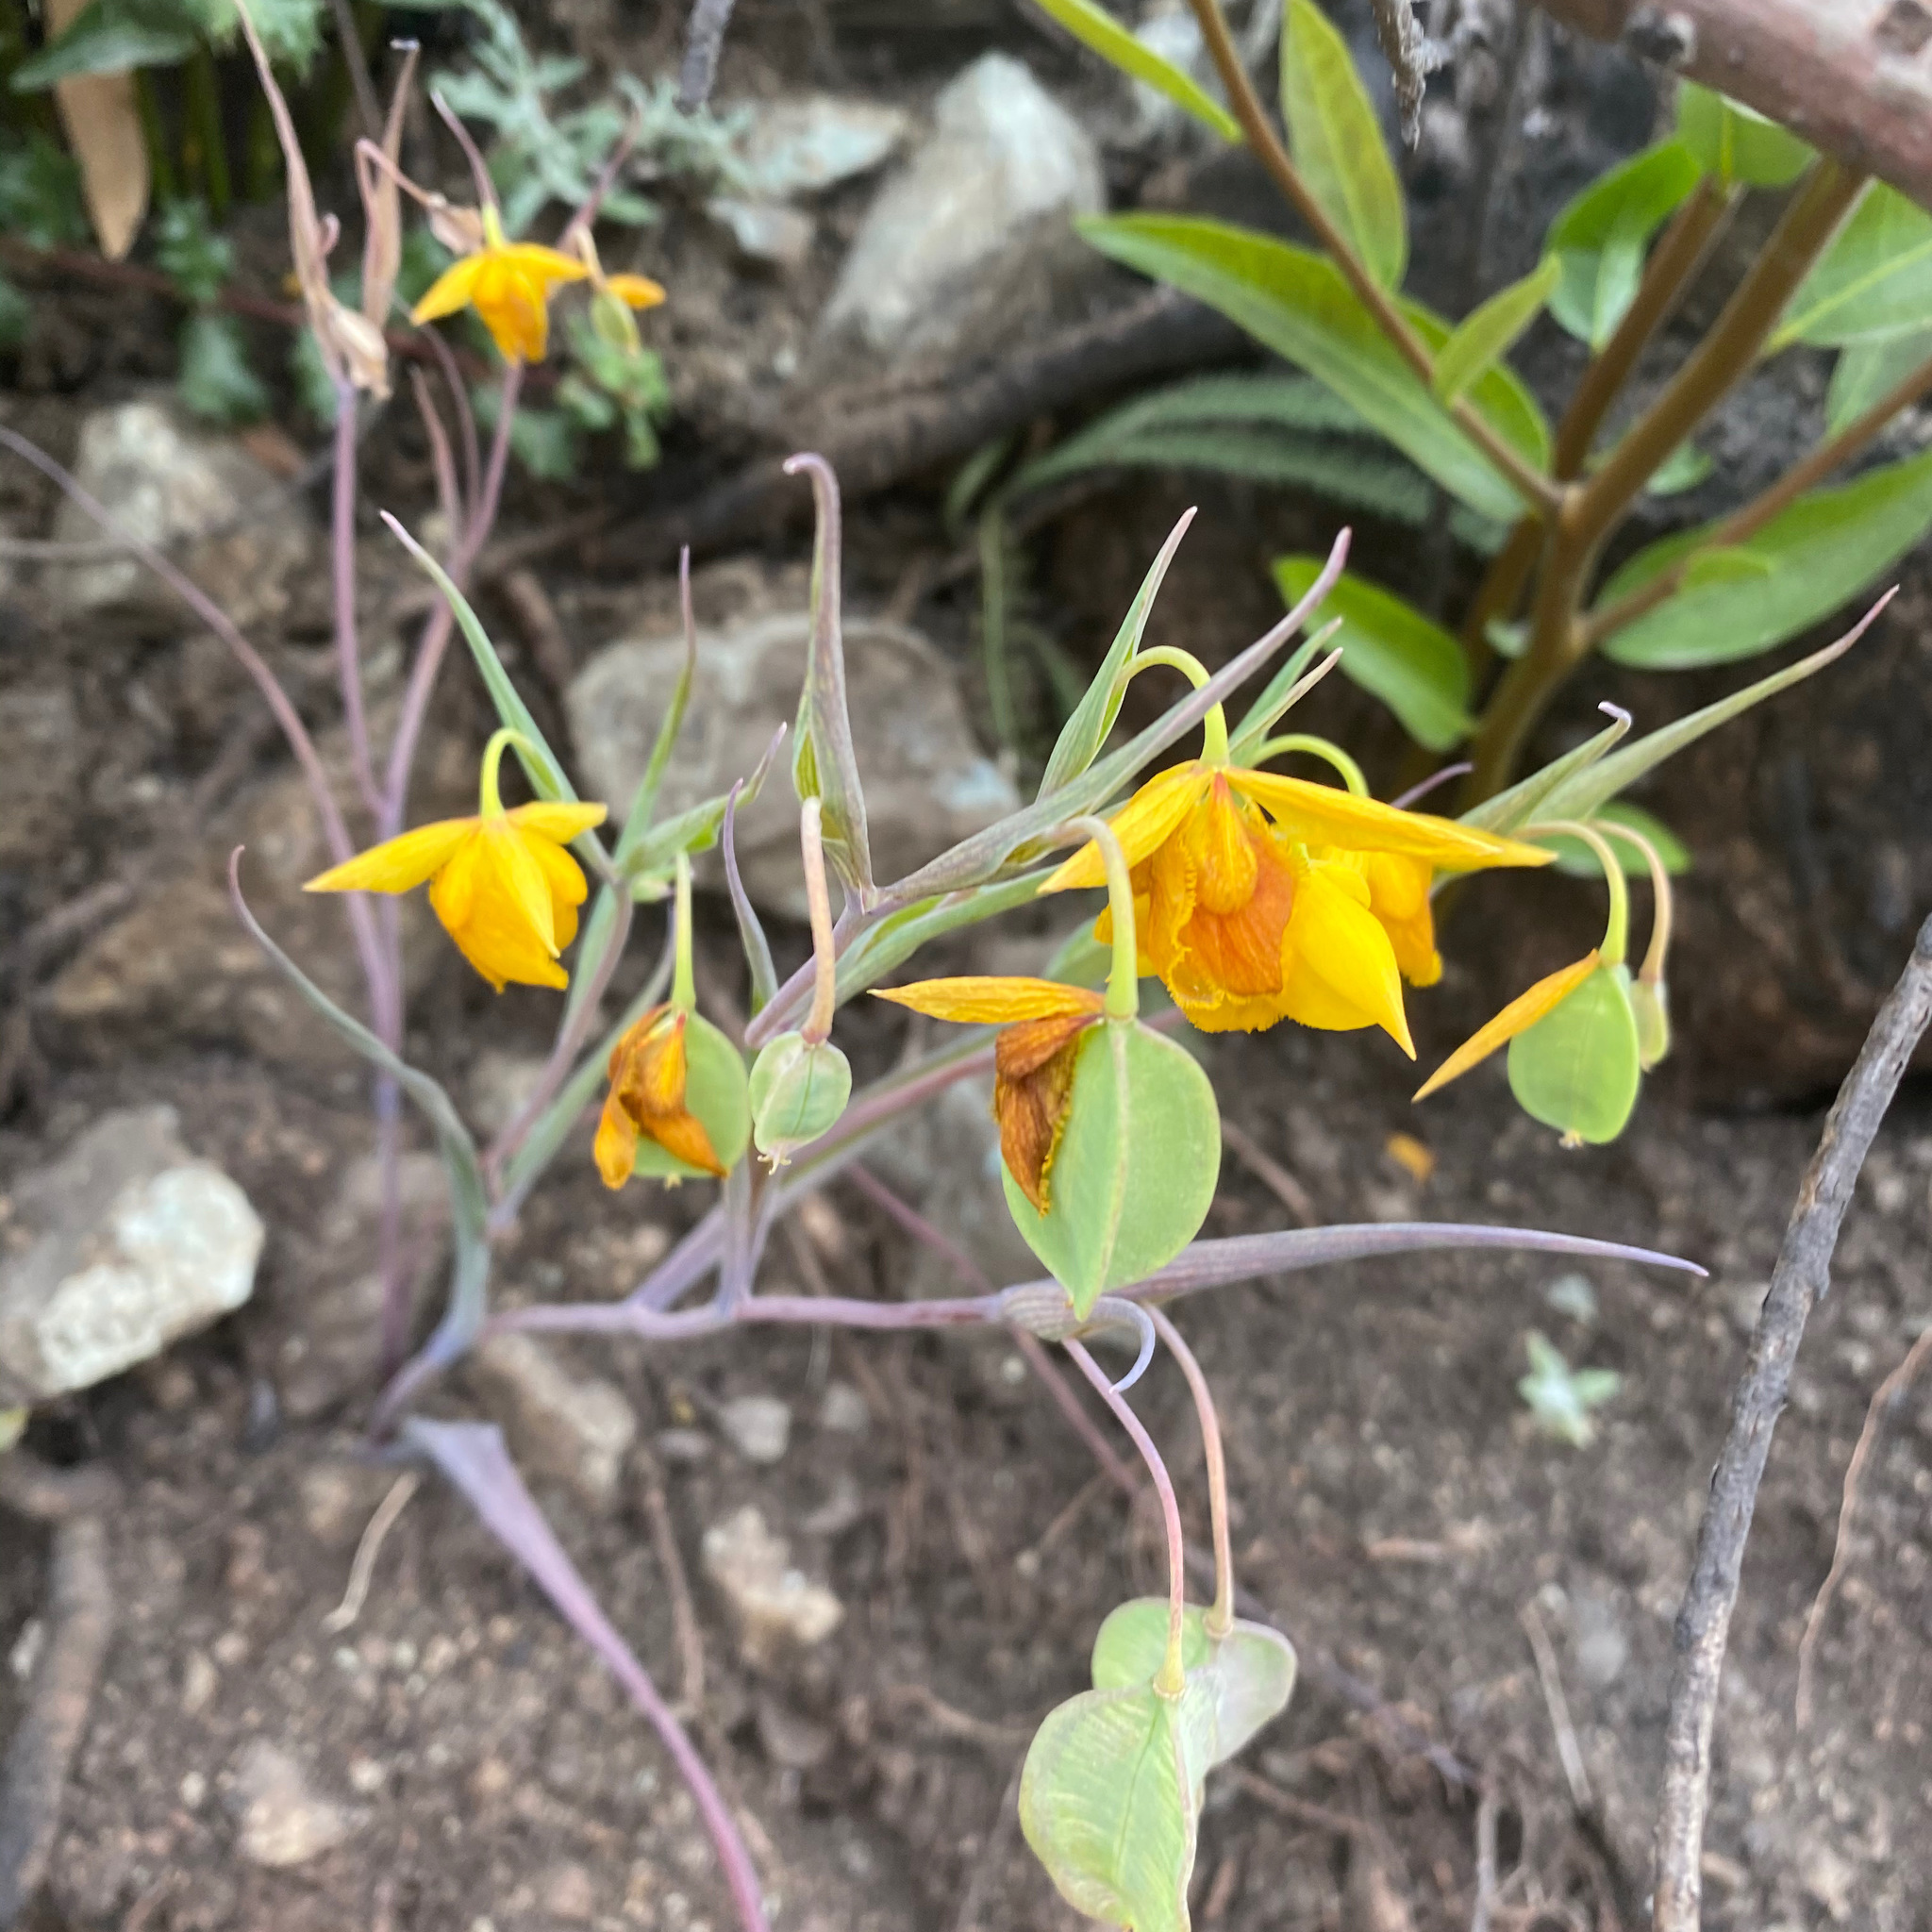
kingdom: Plantae
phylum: Tracheophyta
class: Liliopsida
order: Liliales
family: Liliaceae
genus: Calochortus
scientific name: Calochortus amabilis
